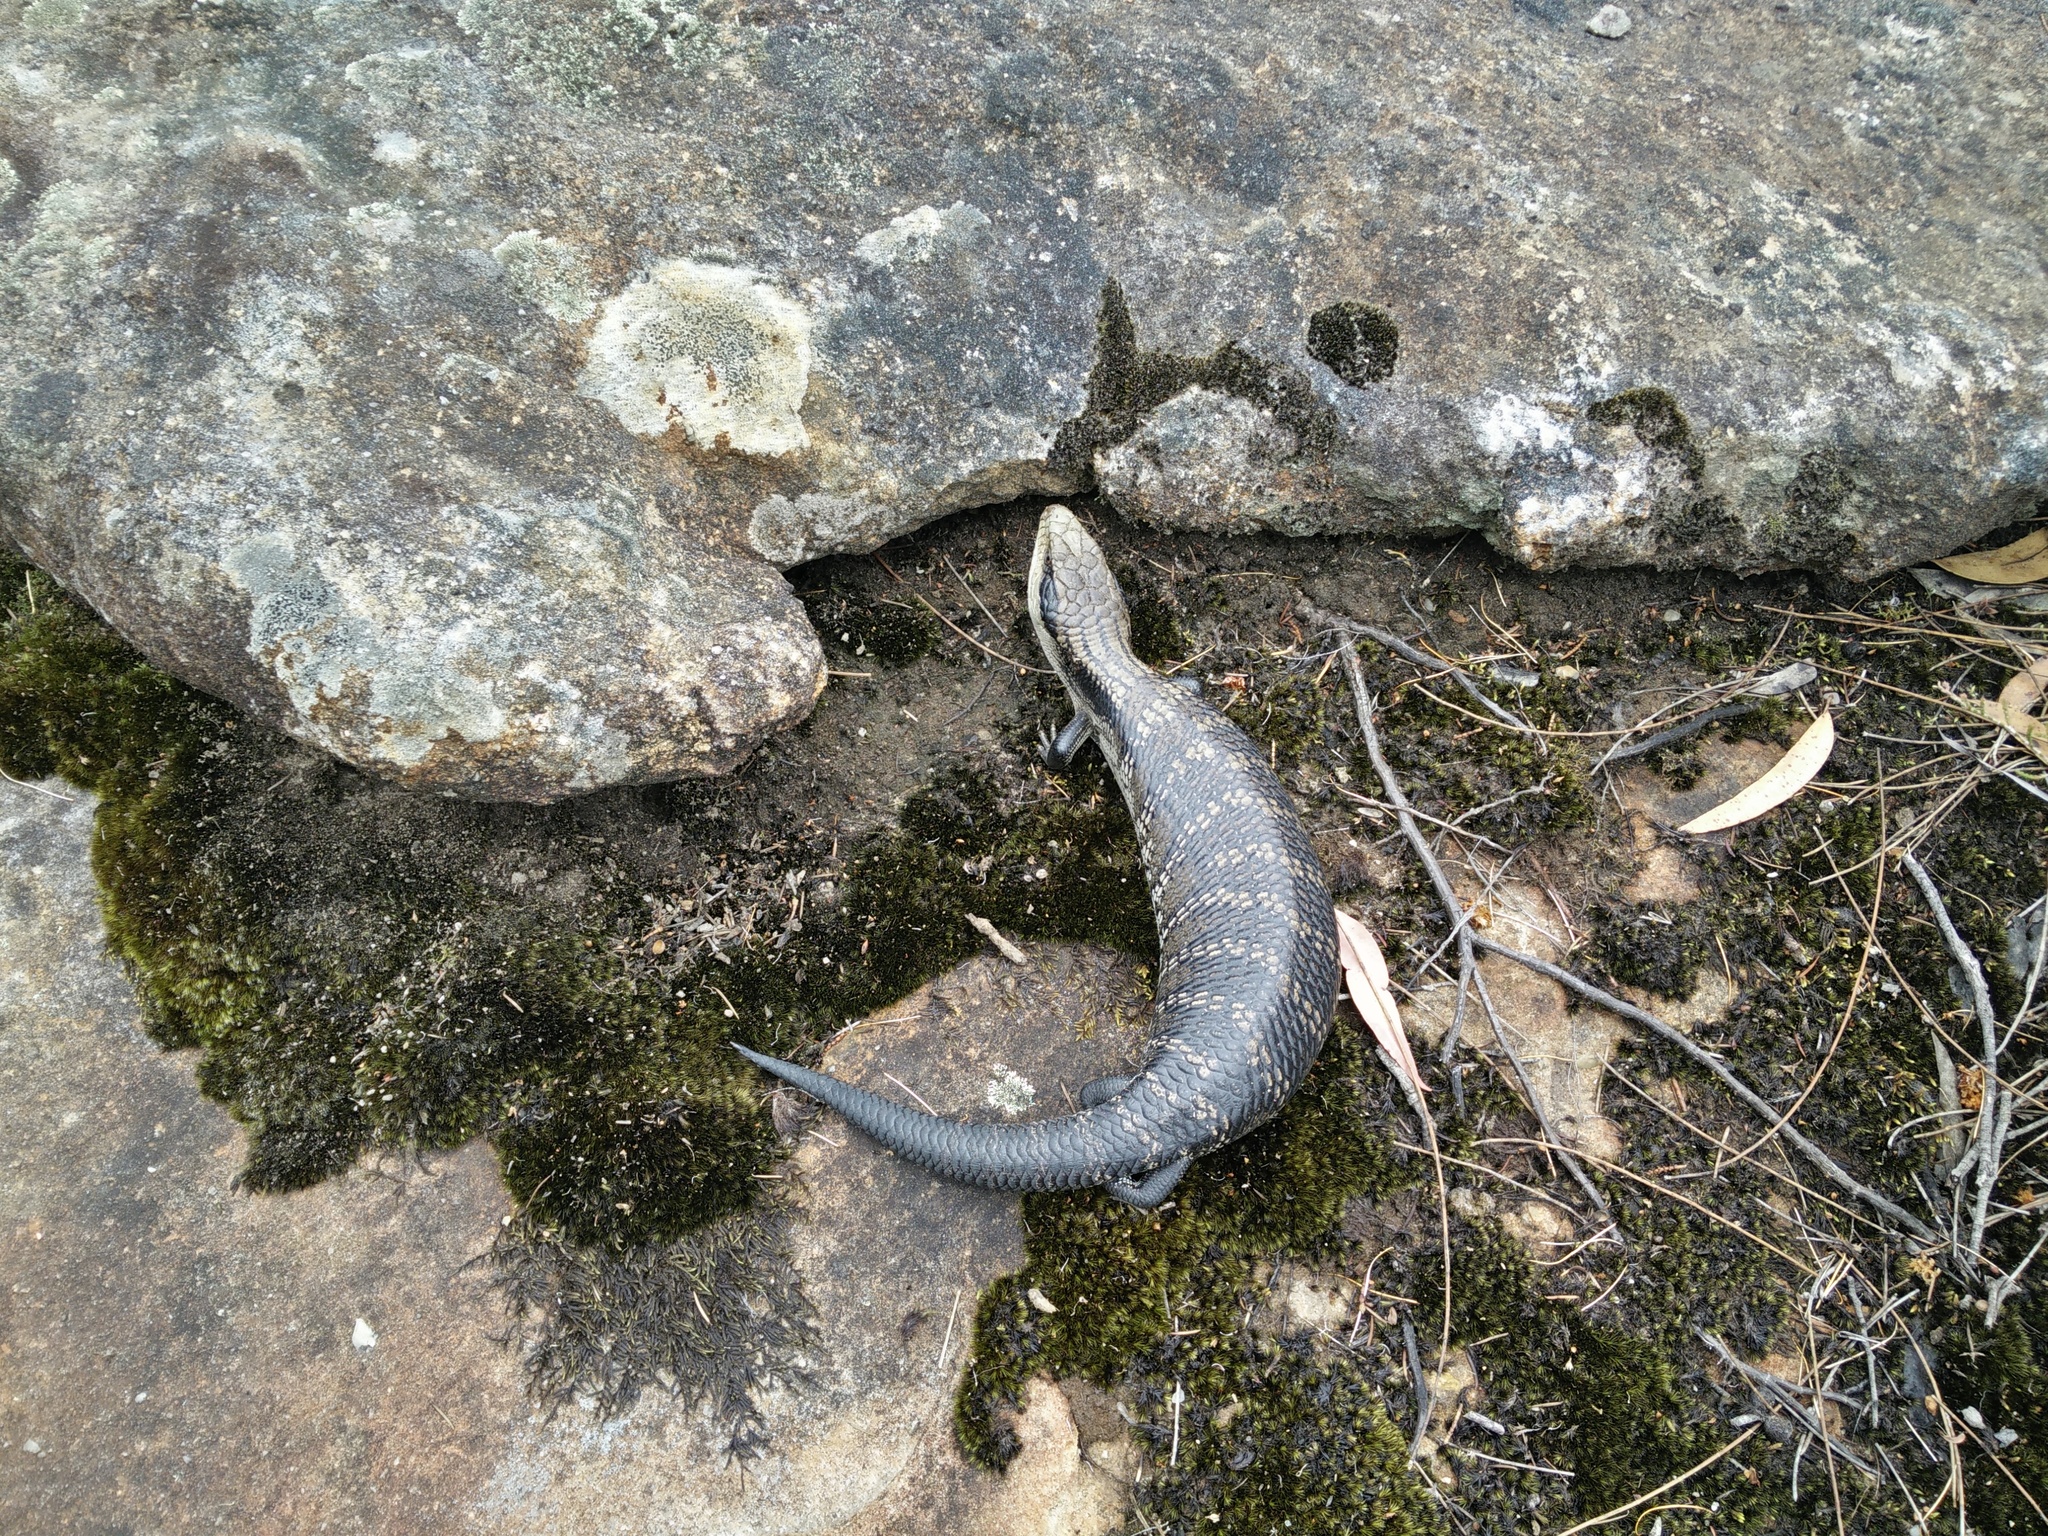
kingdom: Animalia
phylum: Chordata
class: Squamata
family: Scincidae
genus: Tiliqua
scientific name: Tiliqua scincoides
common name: Common bluetongue
